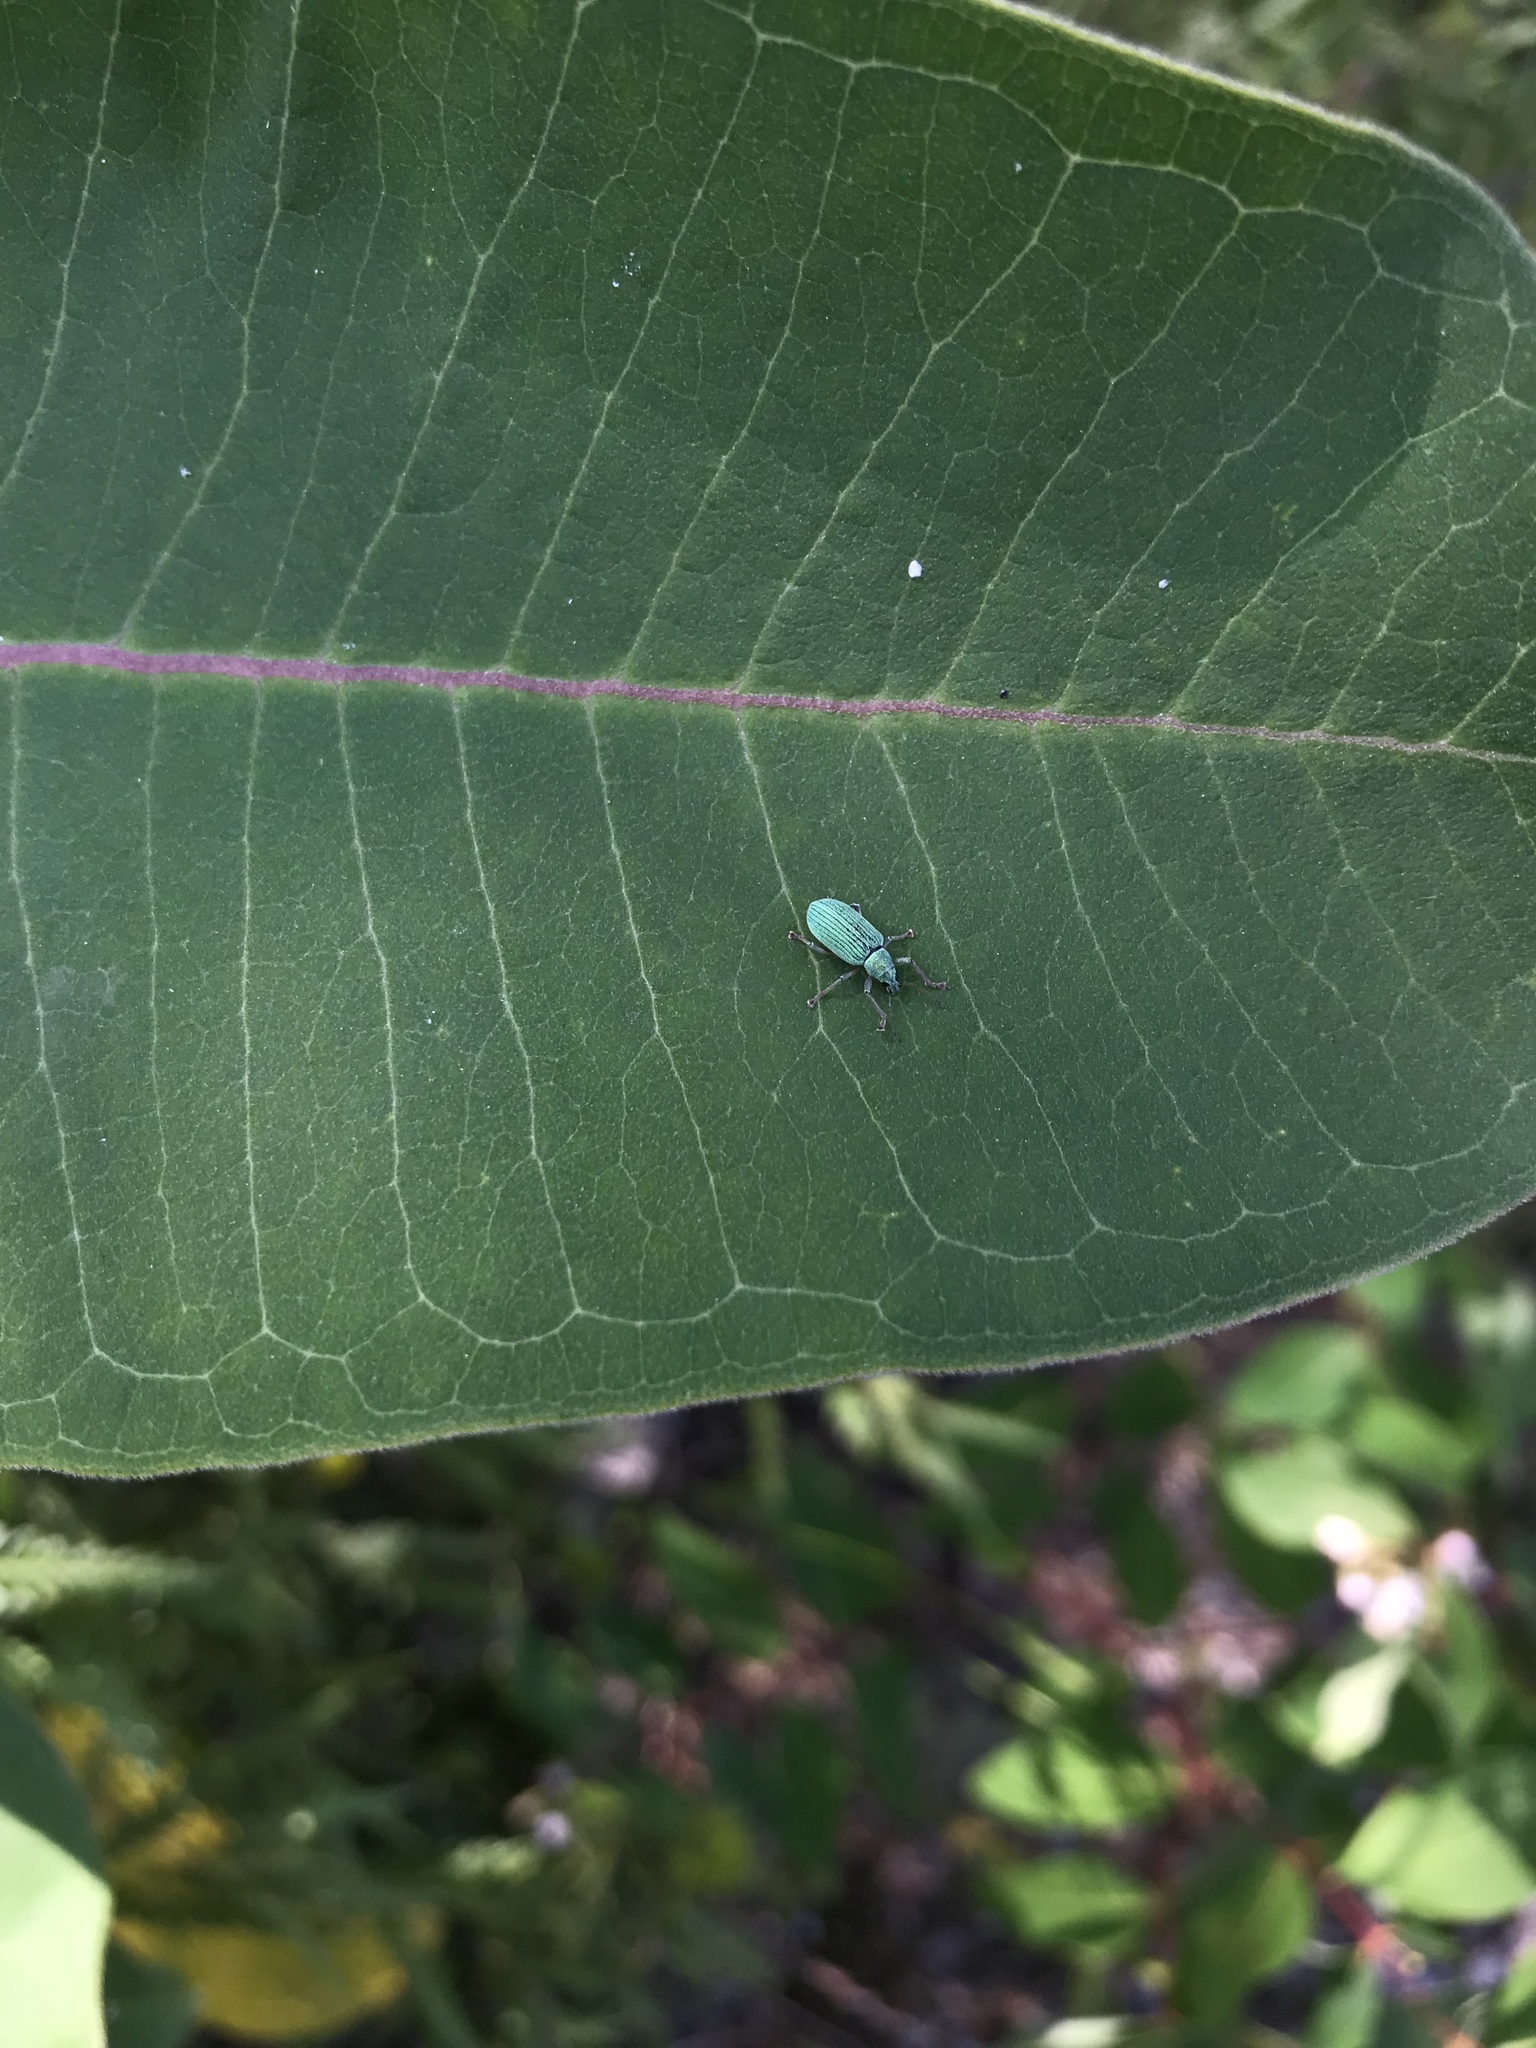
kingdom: Animalia
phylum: Arthropoda
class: Insecta
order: Coleoptera
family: Curculionidae
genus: Polydrusus
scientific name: Polydrusus formosus
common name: Weevil
